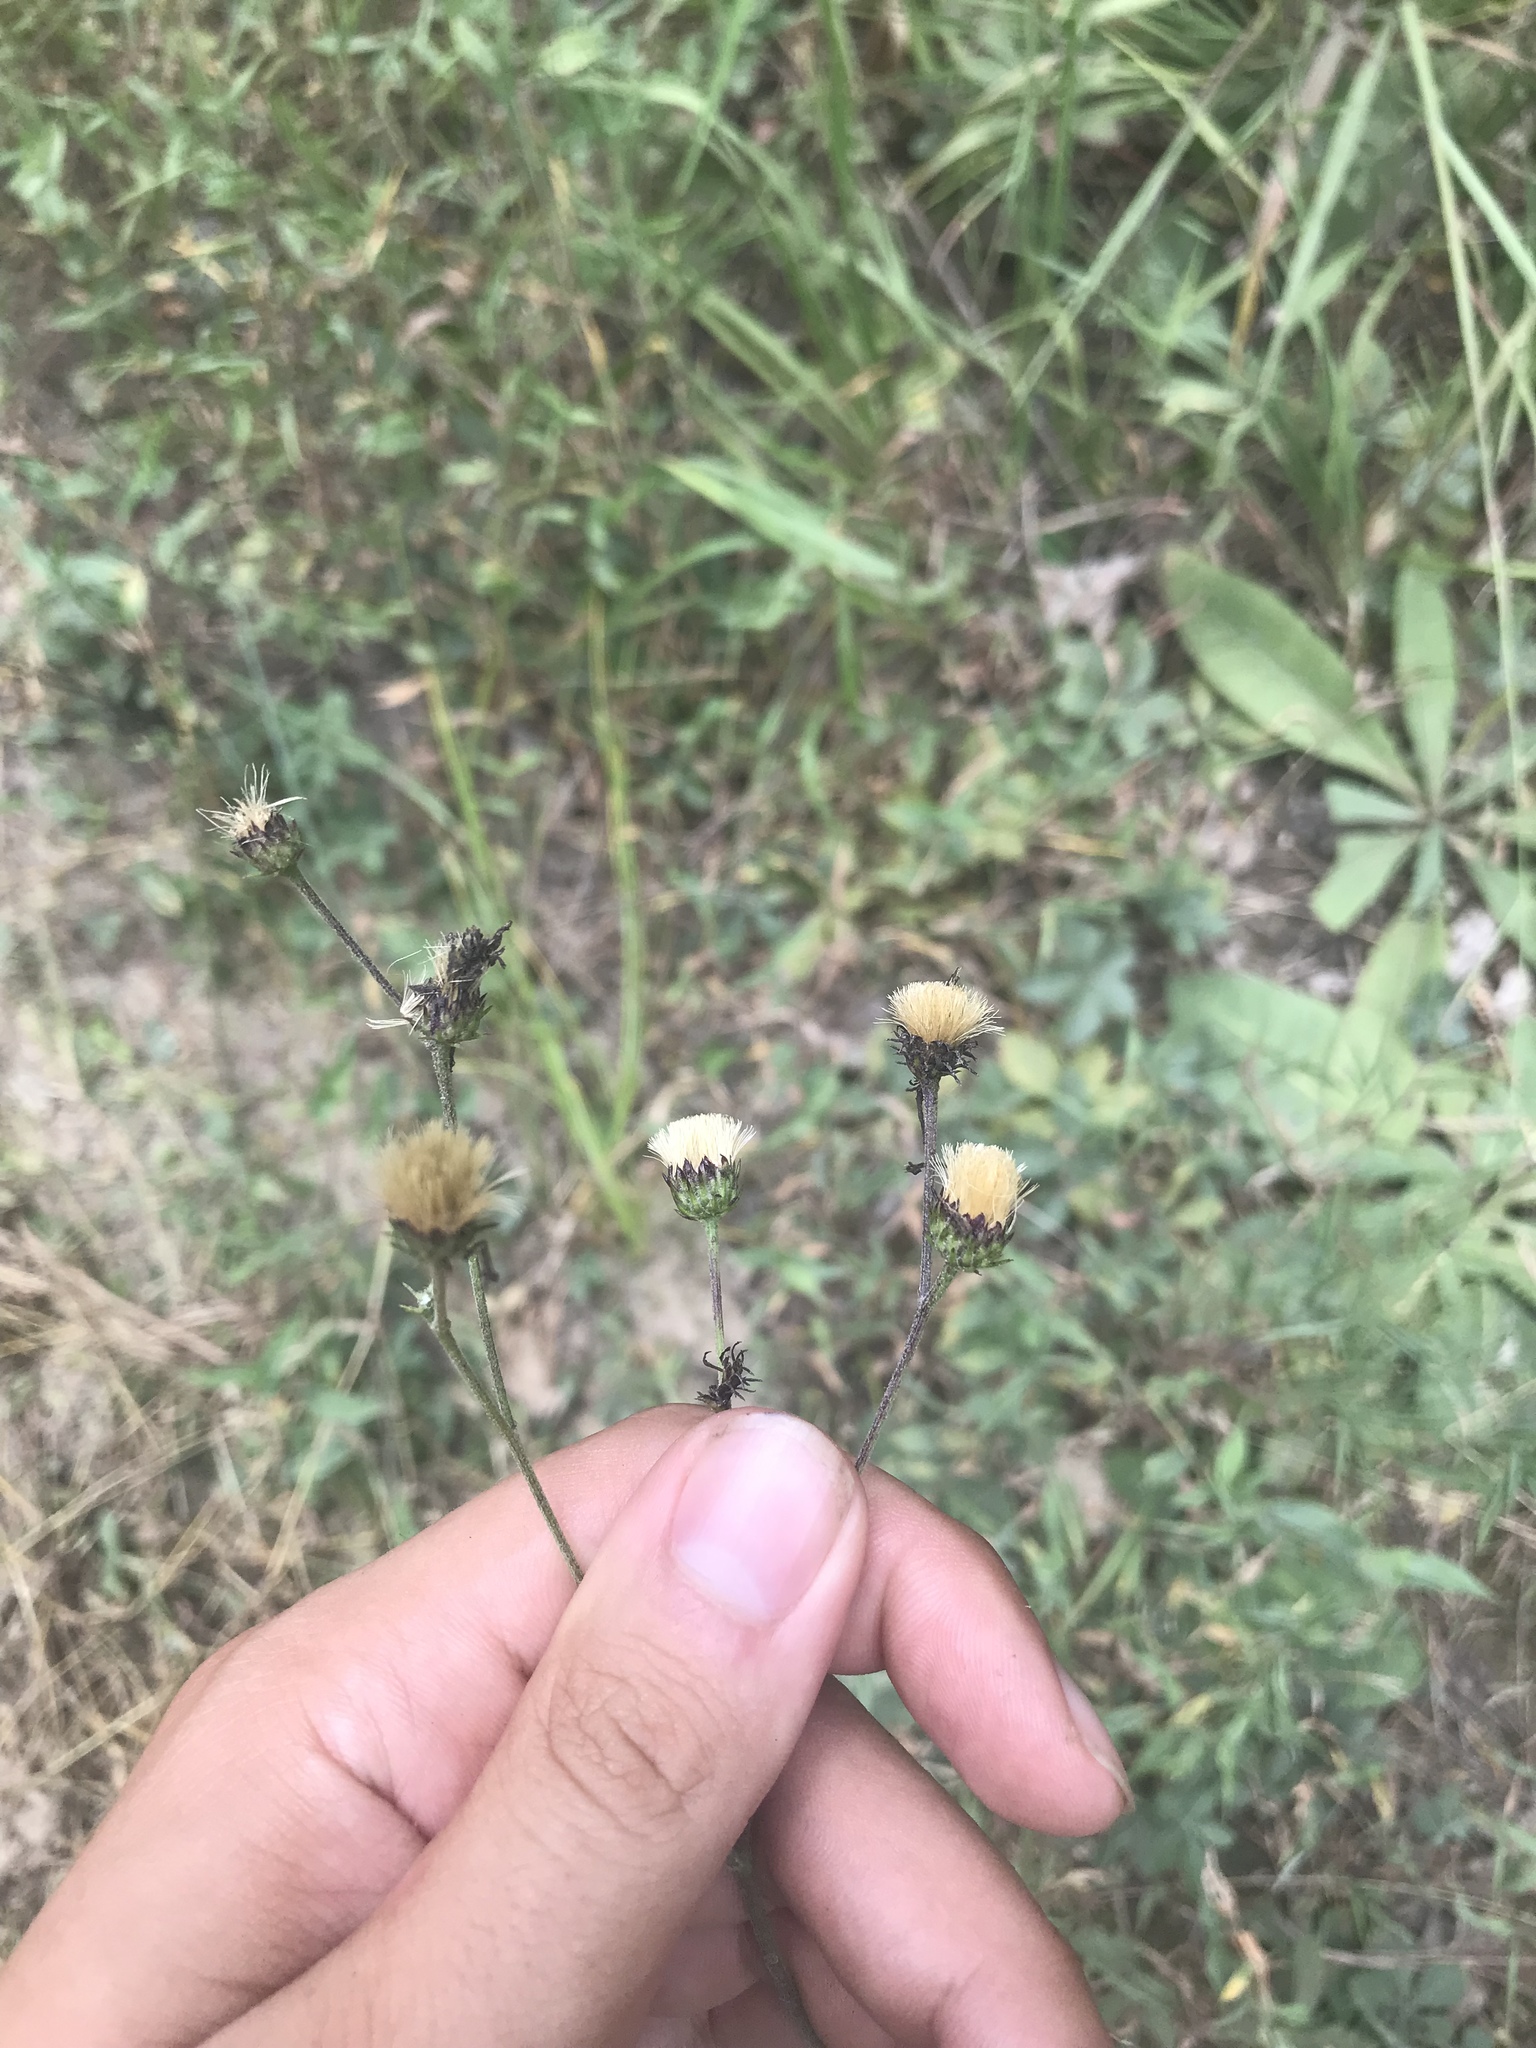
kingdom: Plantae
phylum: Tracheophyta
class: Magnoliopsida
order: Asterales
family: Asteraceae
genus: Vernonia
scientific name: Vernonia acaulis
